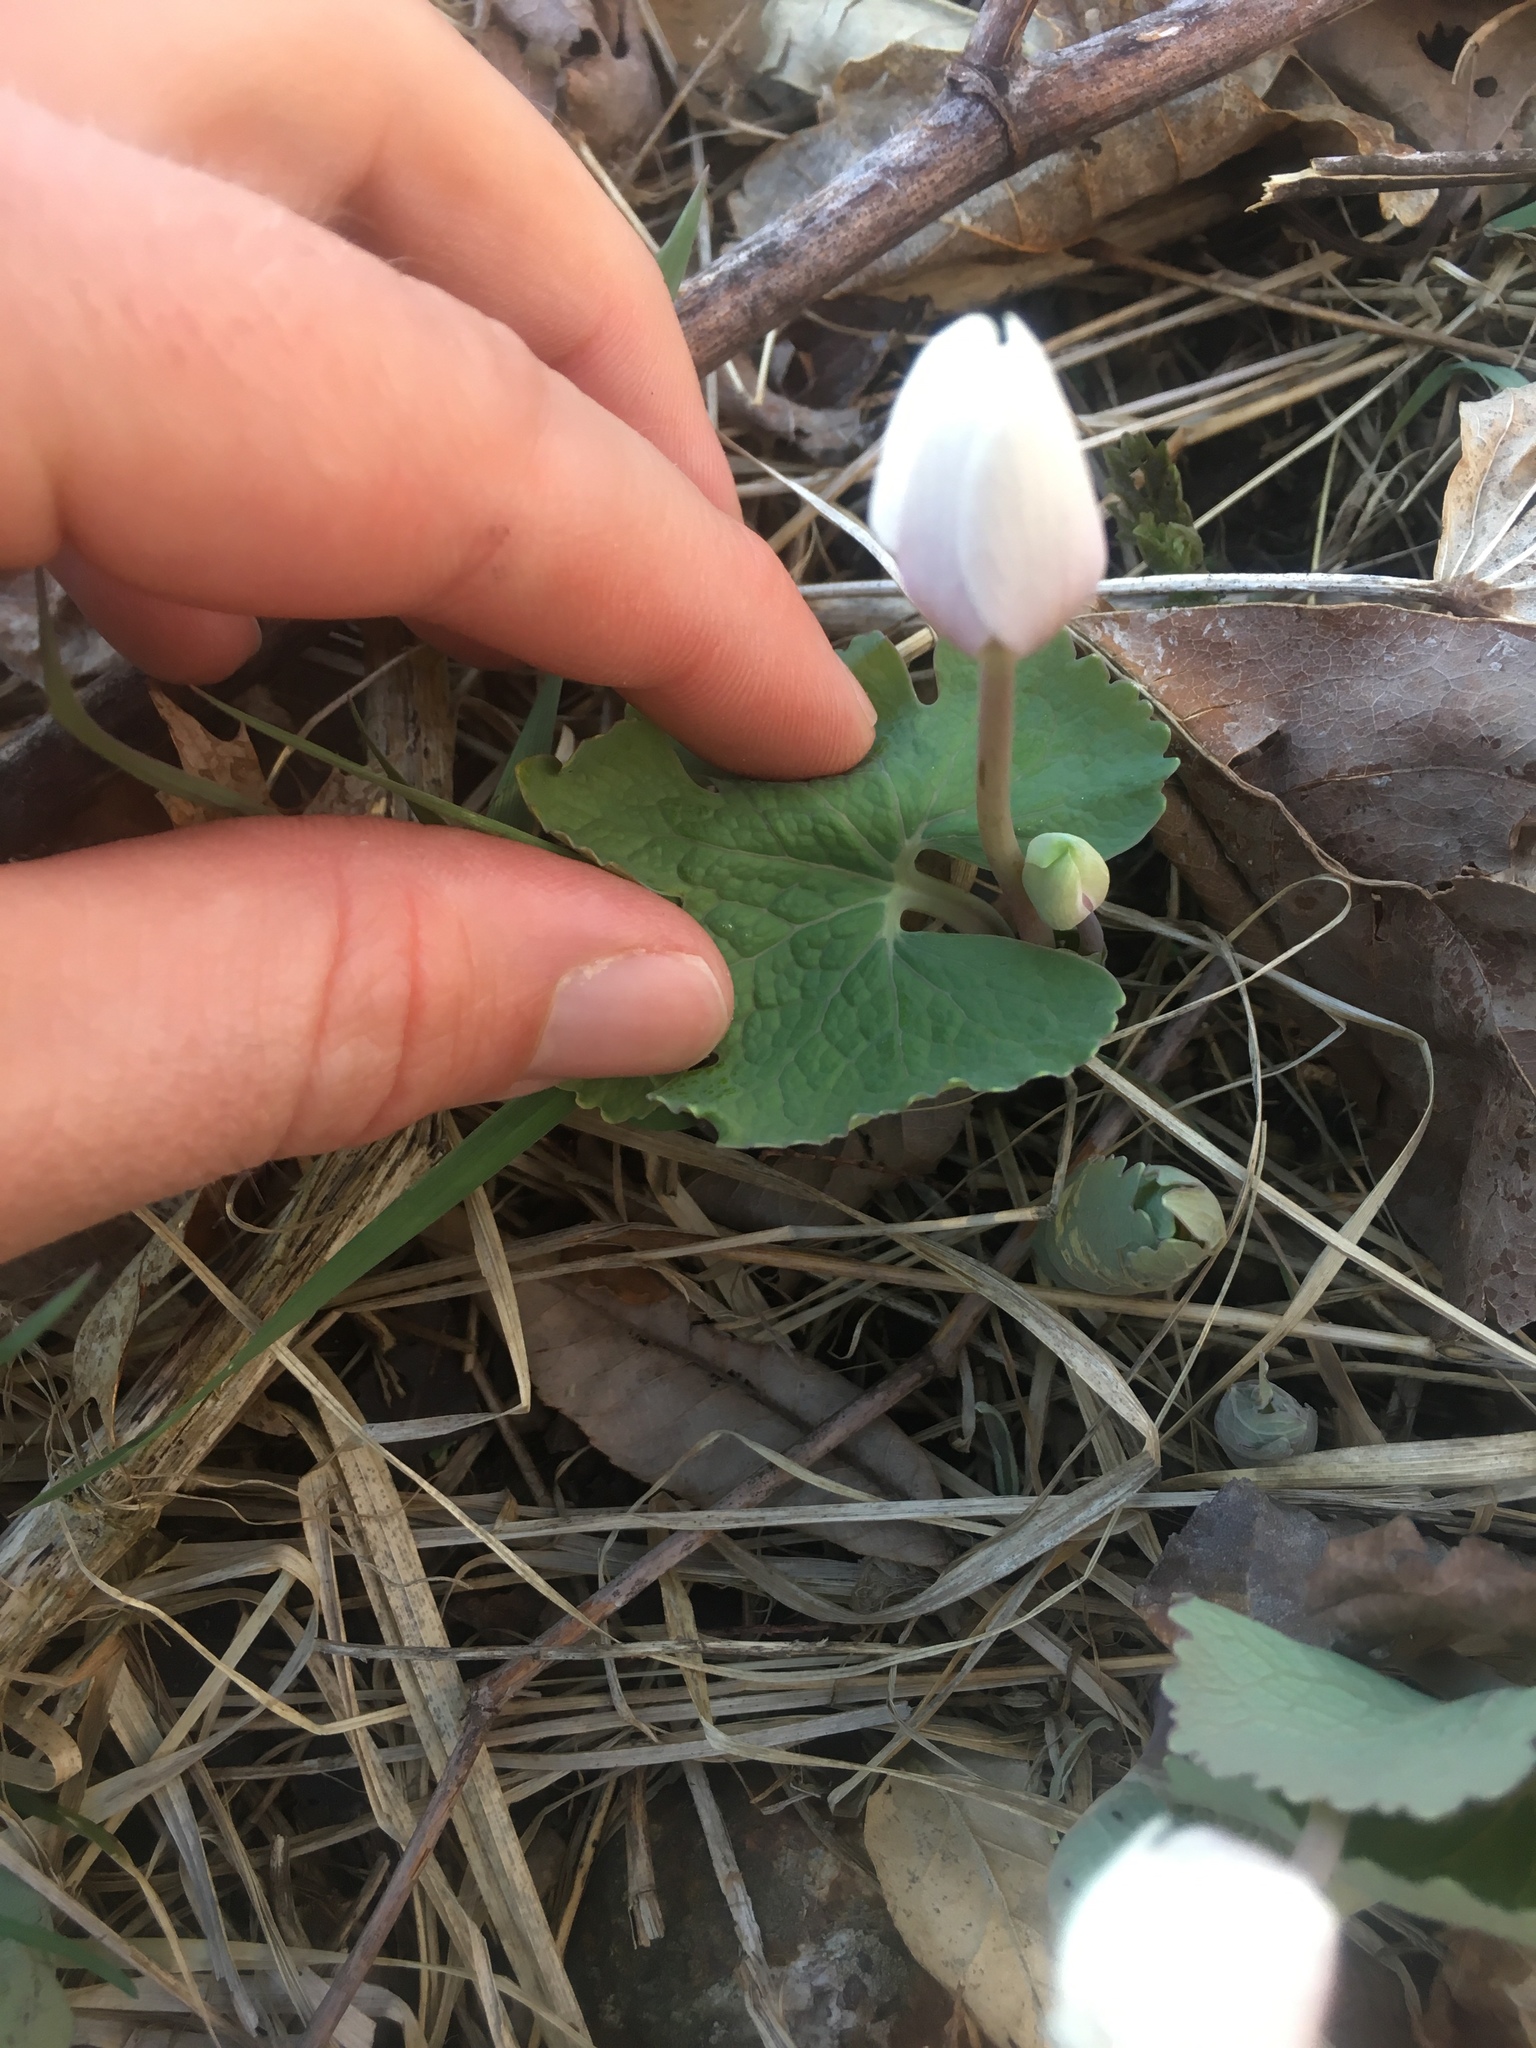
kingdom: Plantae
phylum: Tracheophyta
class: Magnoliopsida
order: Ranunculales
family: Papaveraceae
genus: Sanguinaria
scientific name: Sanguinaria canadensis
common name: Bloodroot
